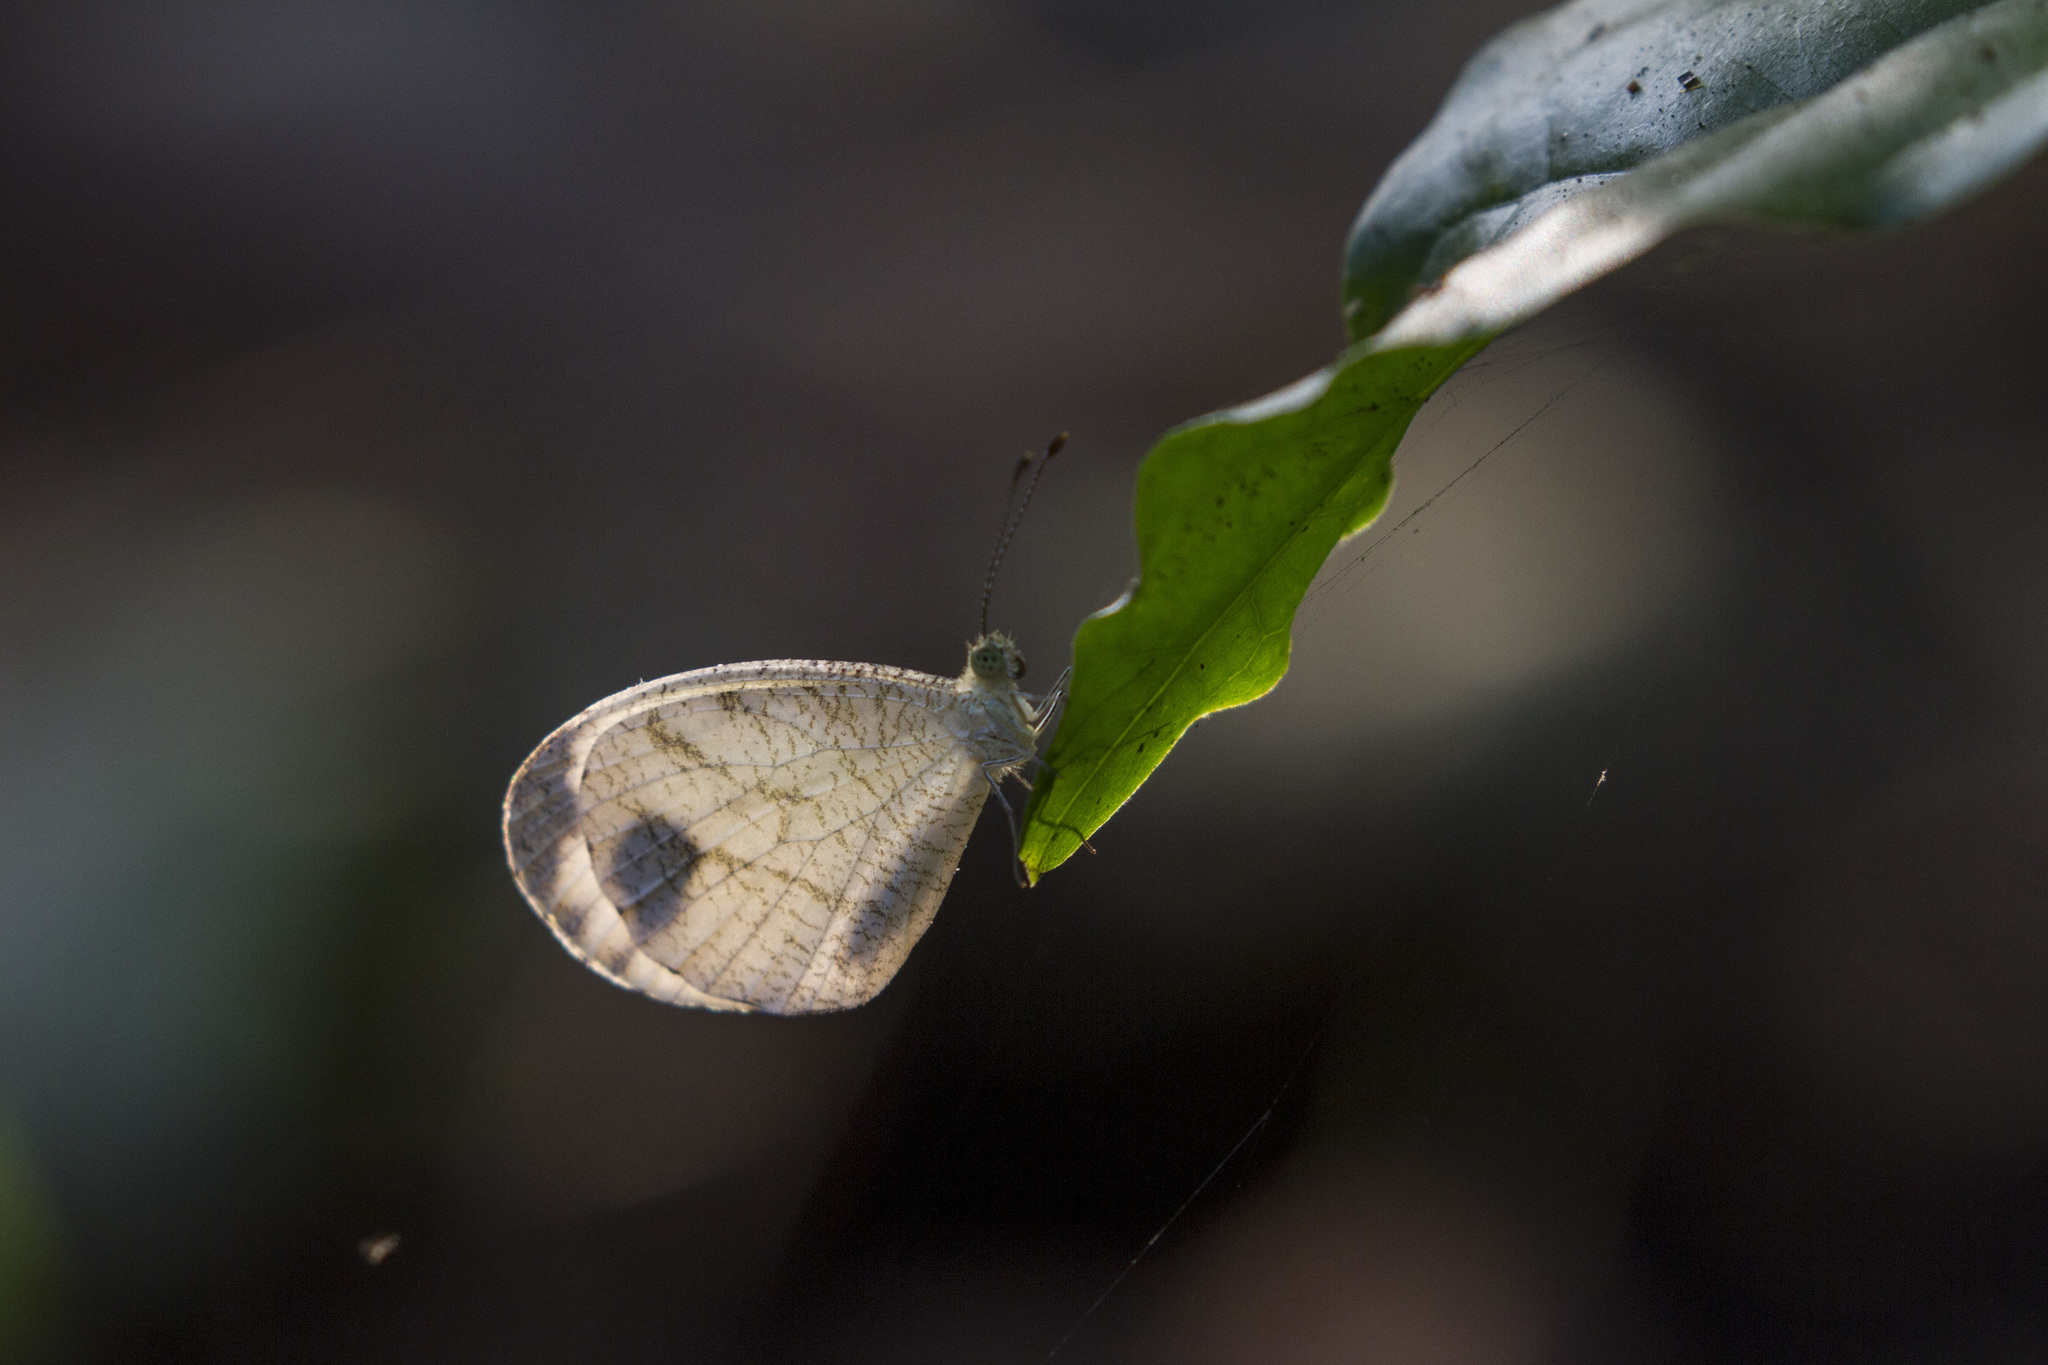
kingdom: Animalia
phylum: Arthropoda
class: Insecta
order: Lepidoptera
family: Pieridae
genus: Leptosia
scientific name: Leptosia nina
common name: Psyche
